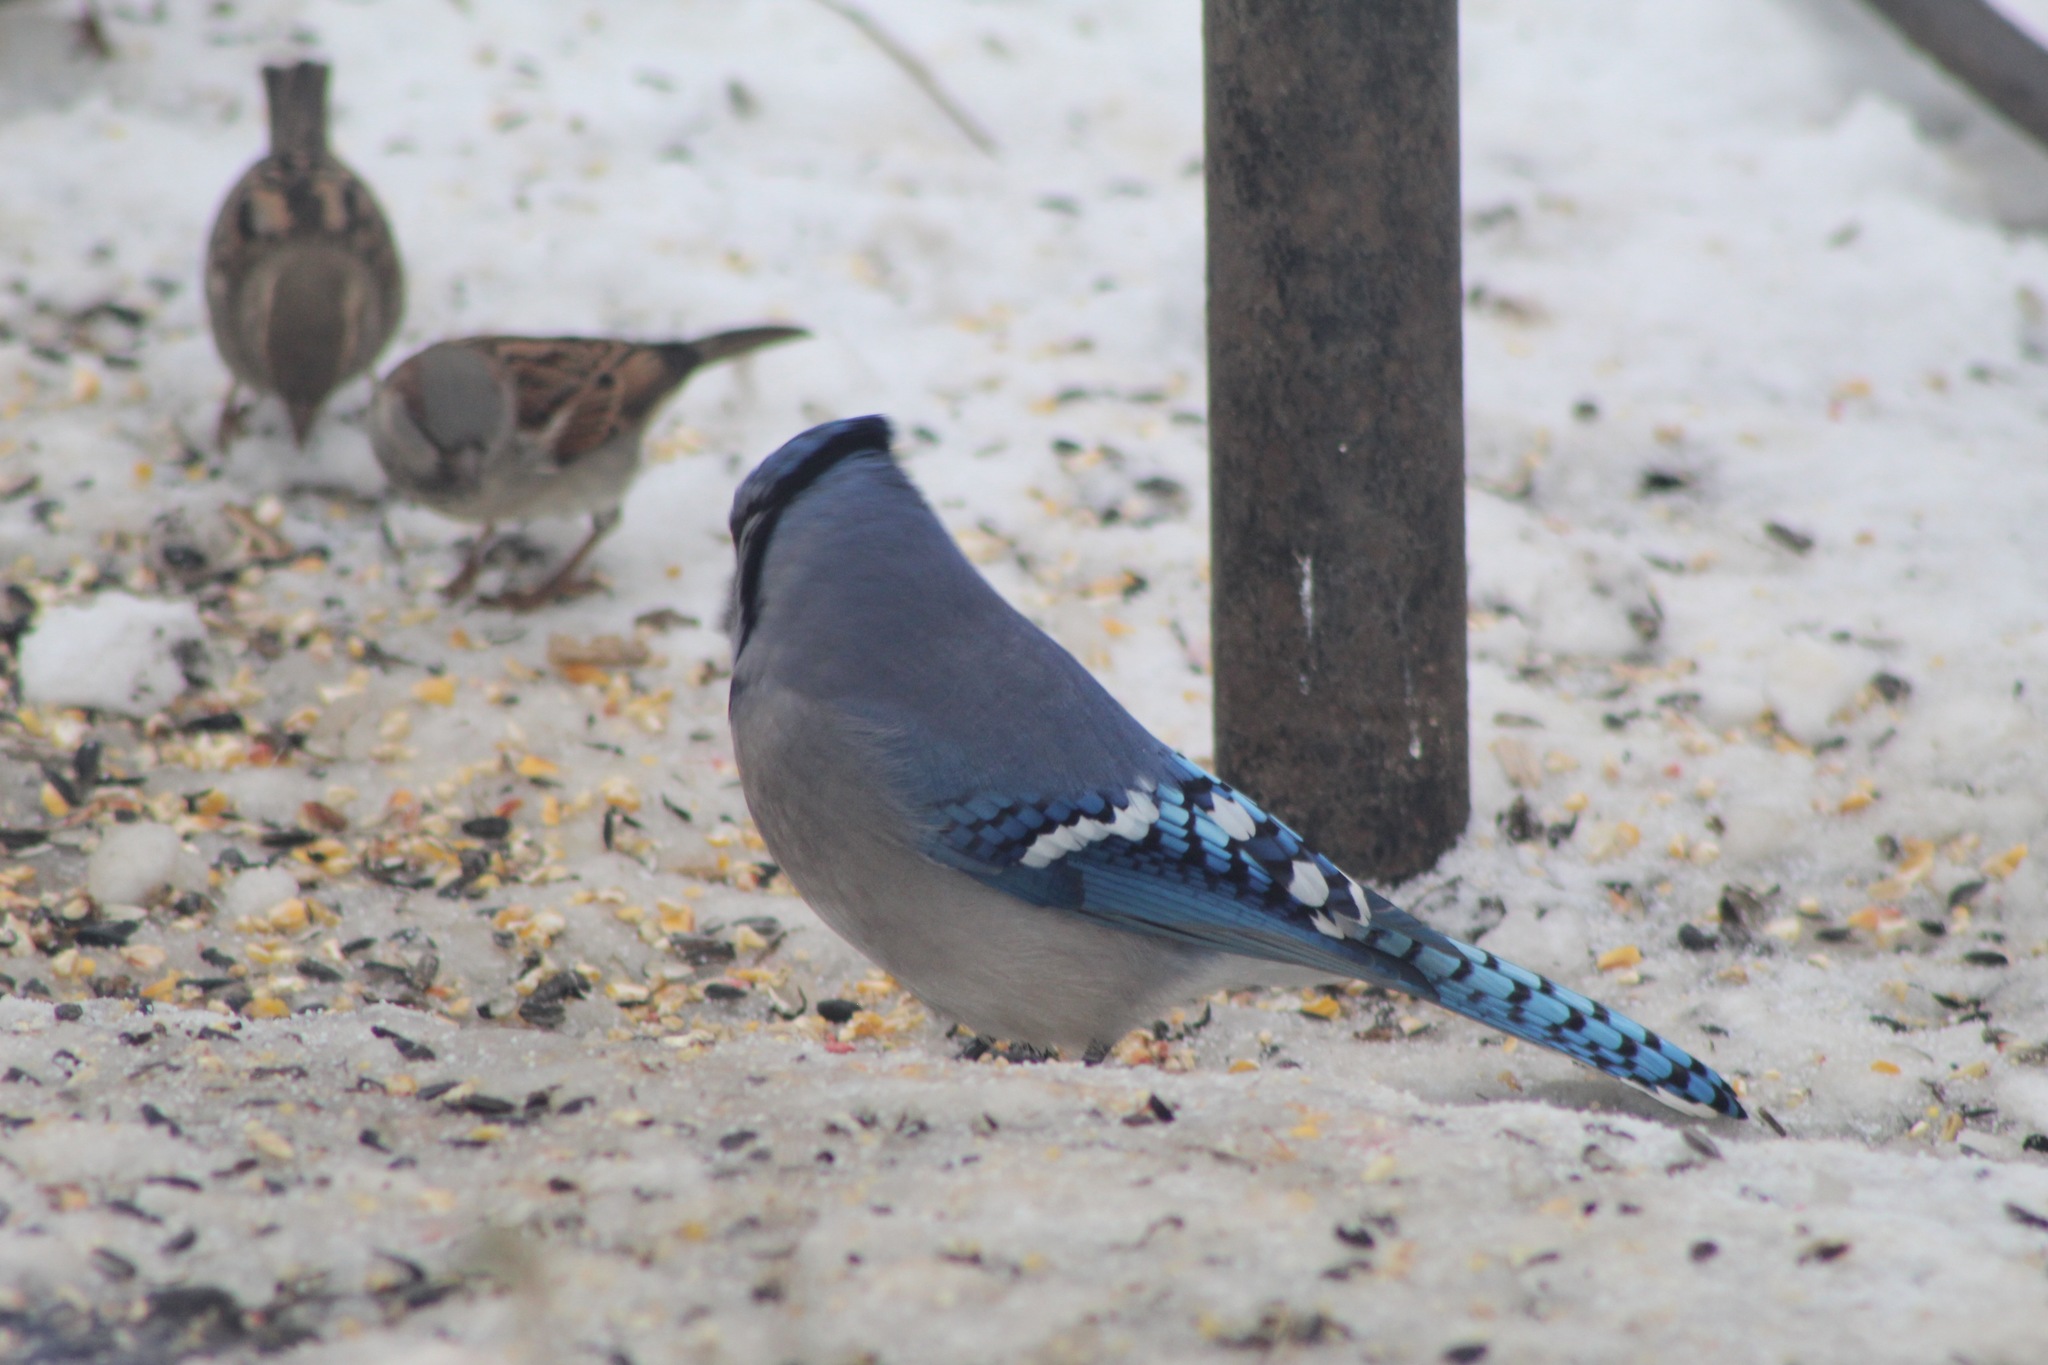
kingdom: Animalia
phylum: Chordata
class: Aves
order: Passeriformes
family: Corvidae
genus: Cyanocitta
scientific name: Cyanocitta cristata
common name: Blue jay
